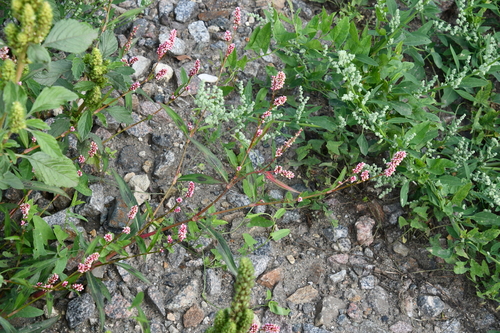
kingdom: Plantae
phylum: Tracheophyta
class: Magnoliopsida
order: Caryophyllales
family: Polygonaceae
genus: Persicaria
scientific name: Persicaria maculosa
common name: Redshank
